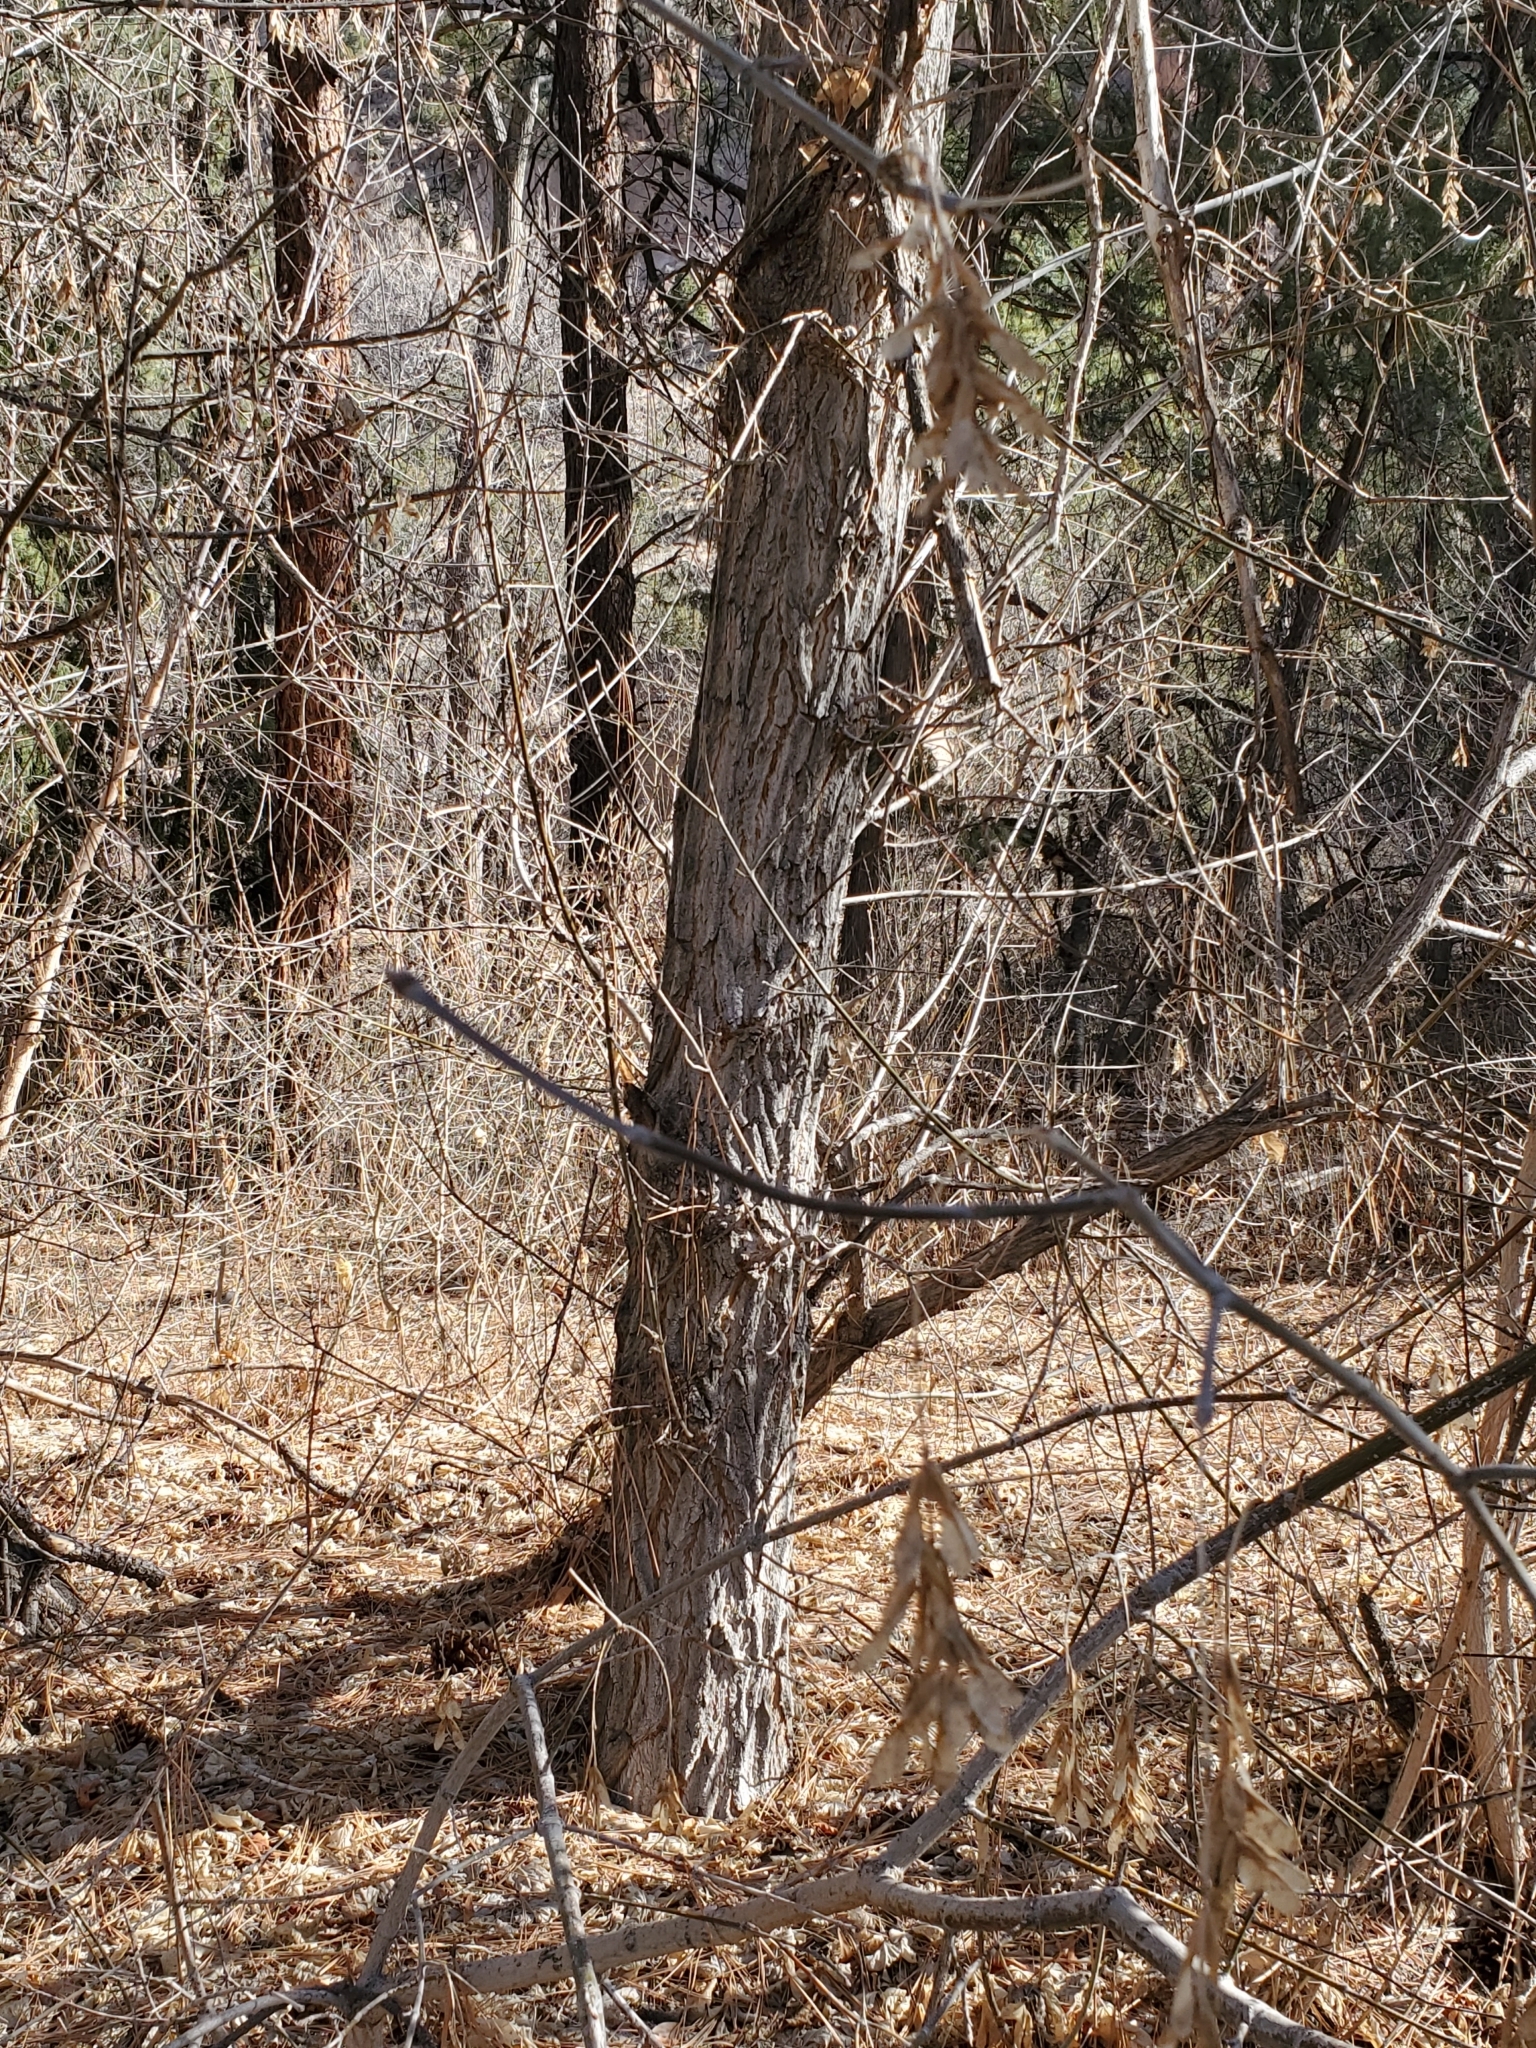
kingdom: Plantae
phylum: Tracheophyta
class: Magnoliopsida
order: Sapindales
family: Sapindaceae
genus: Acer
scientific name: Acer negundo
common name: Ashleaf maple
